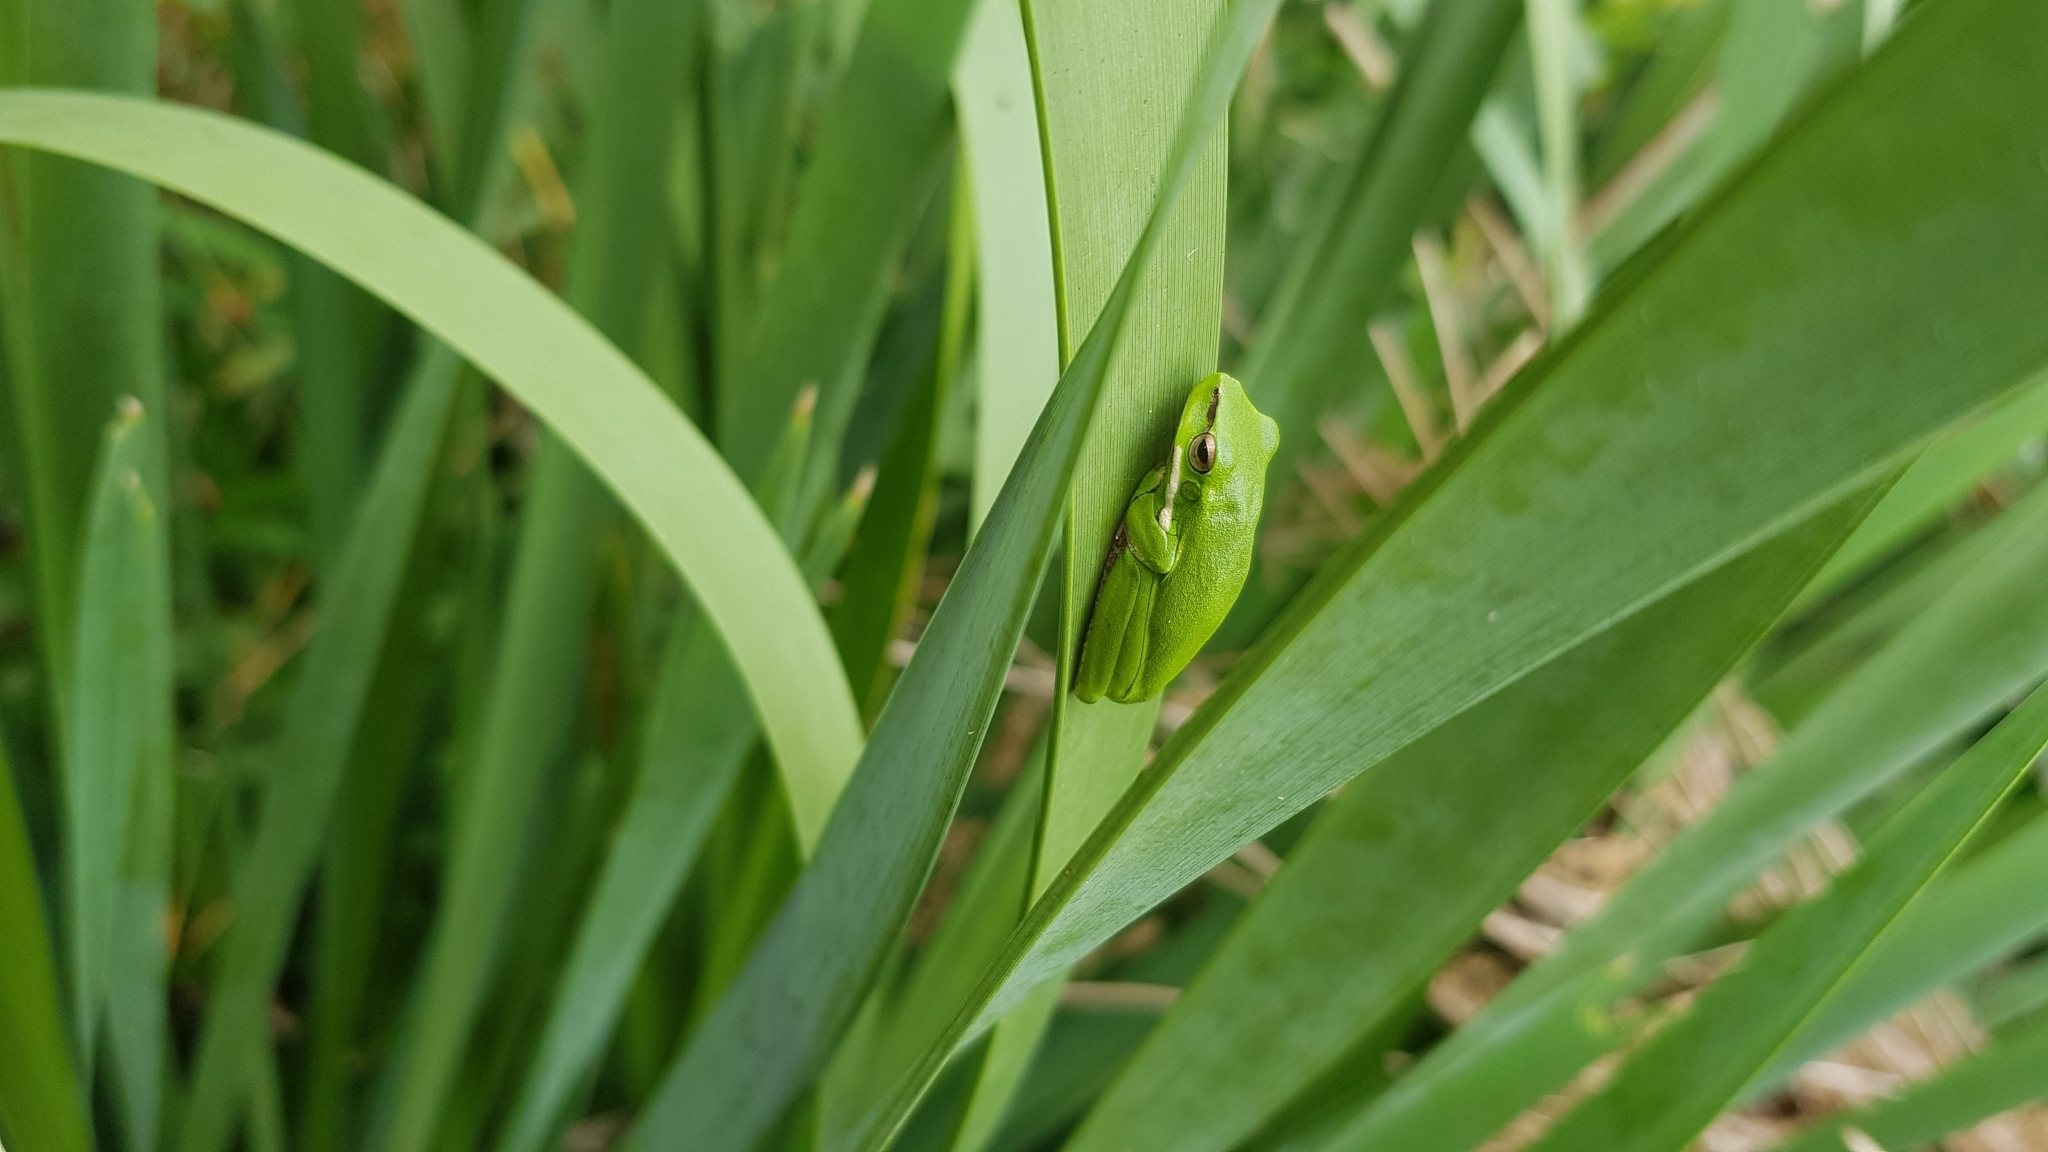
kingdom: Animalia
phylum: Chordata
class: Amphibia
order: Anura
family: Pelodryadidae
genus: Litoria
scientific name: Litoria fallax
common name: Eastern dwarf treefrog
